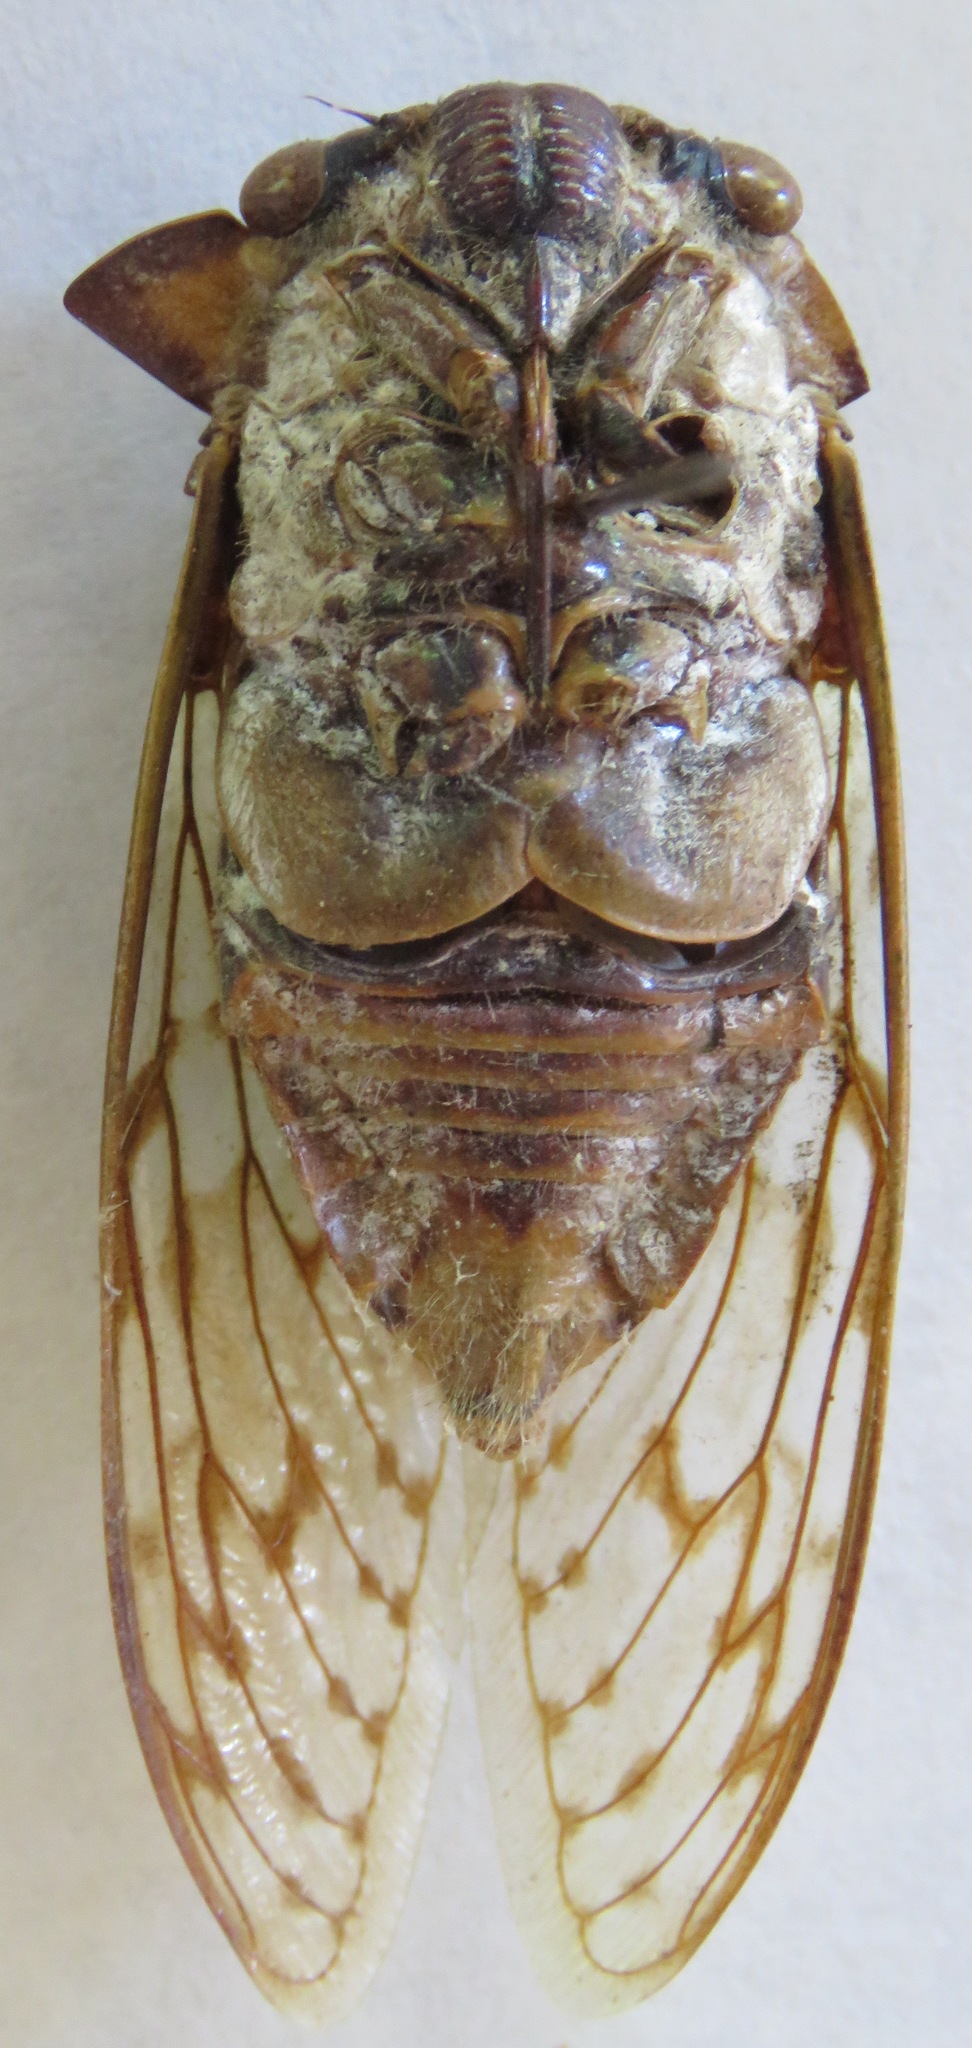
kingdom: Animalia
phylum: Arthropoda
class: Insecta
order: Hemiptera
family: Cicadidae
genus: Ioba
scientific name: Ioba horizontalis
